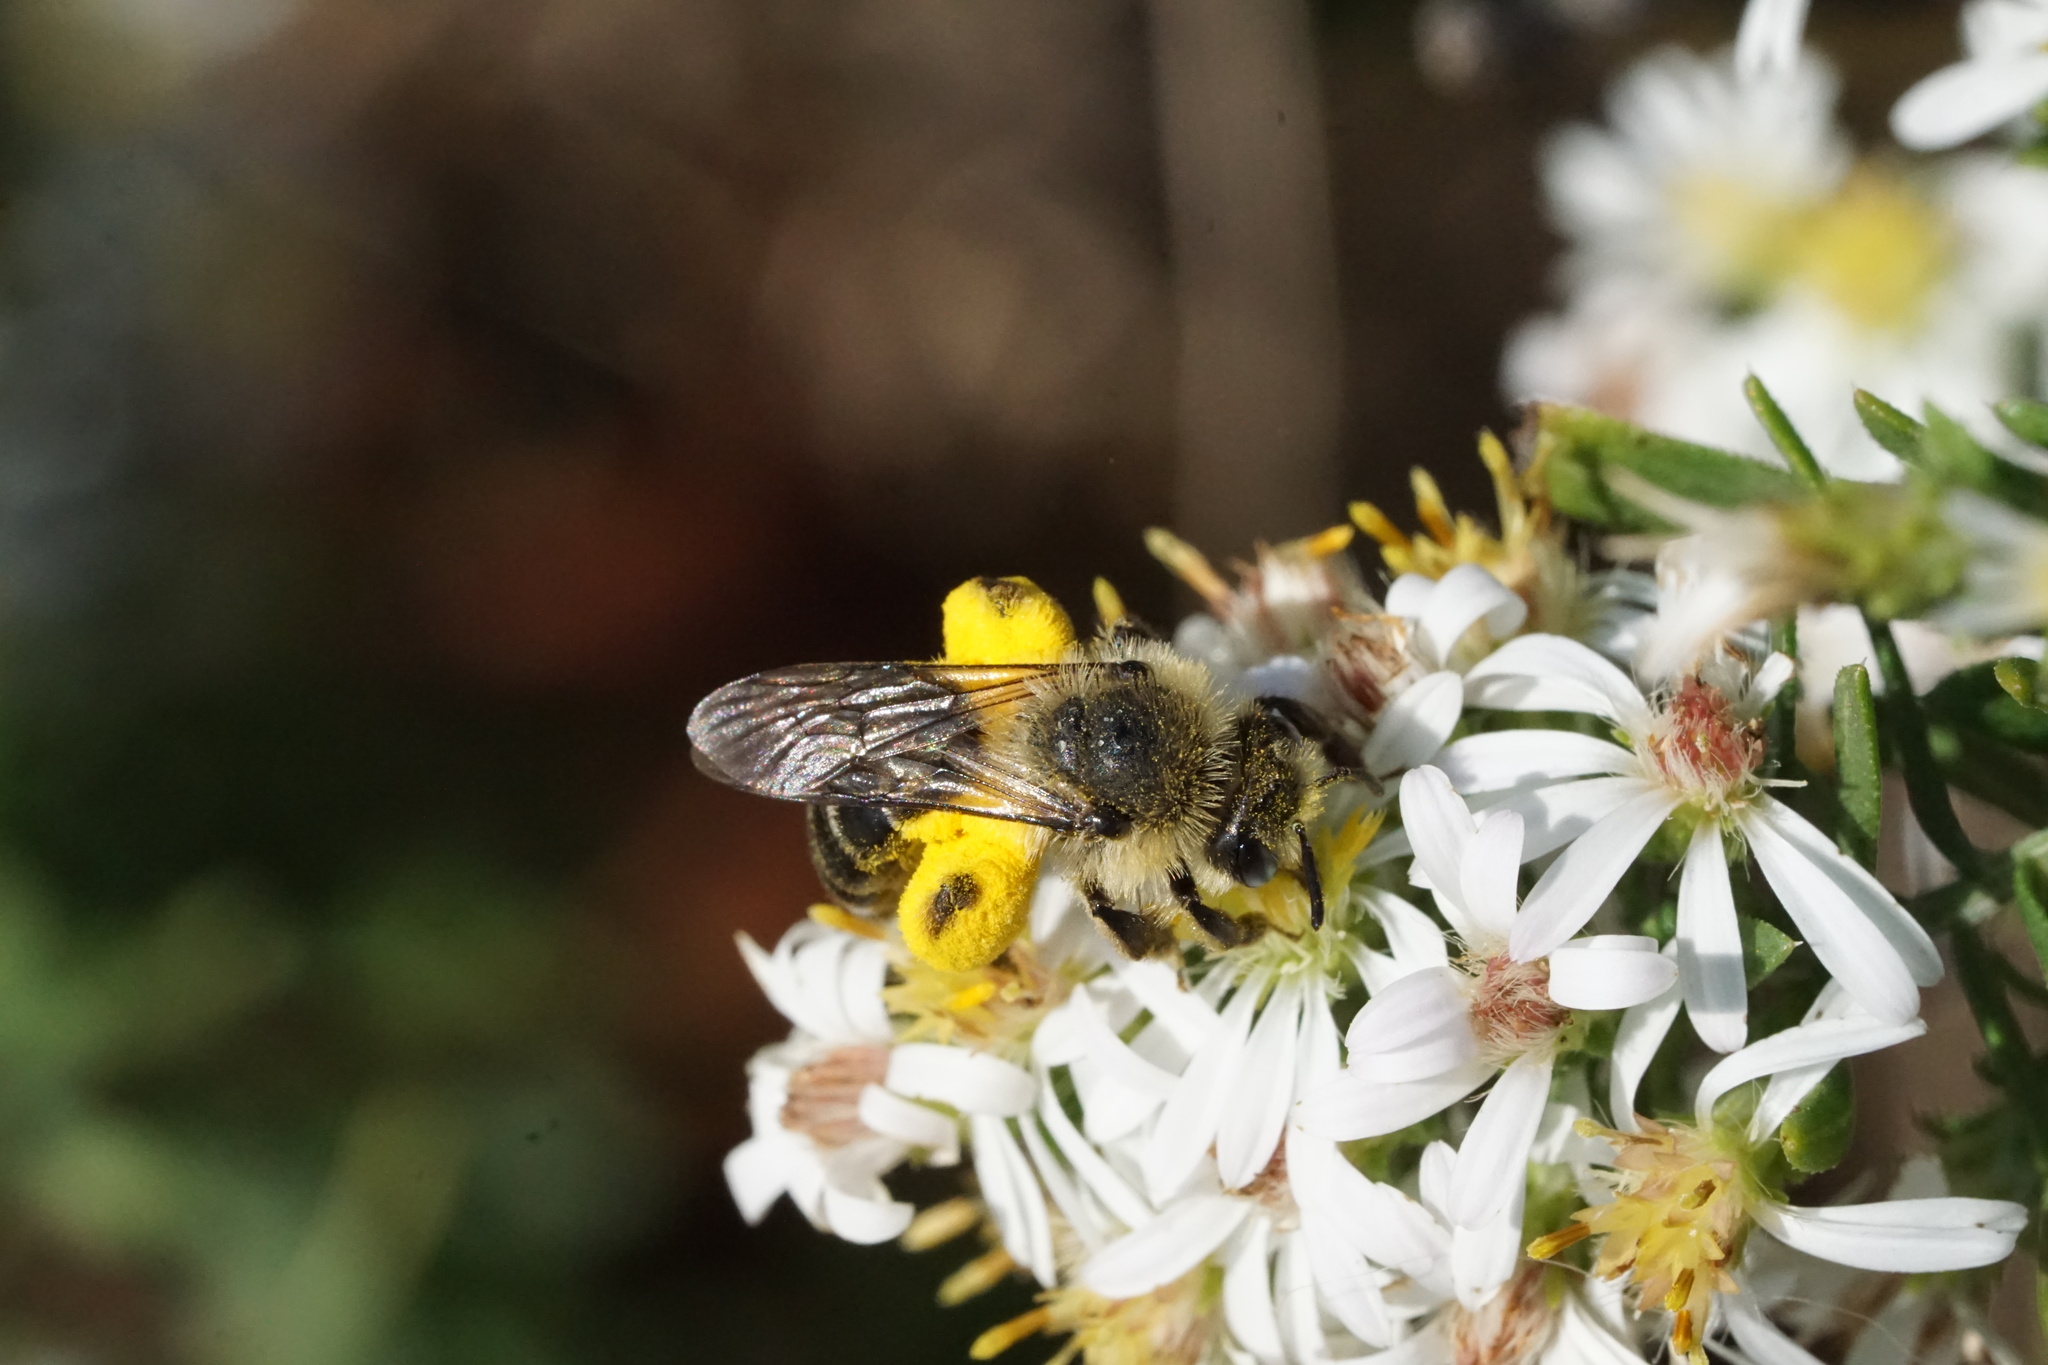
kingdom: Animalia
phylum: Arthropoda
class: Insecta
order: Hymenoptera
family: Andrenidae
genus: Andrena
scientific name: Andrena asteris
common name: Aster mining bee
